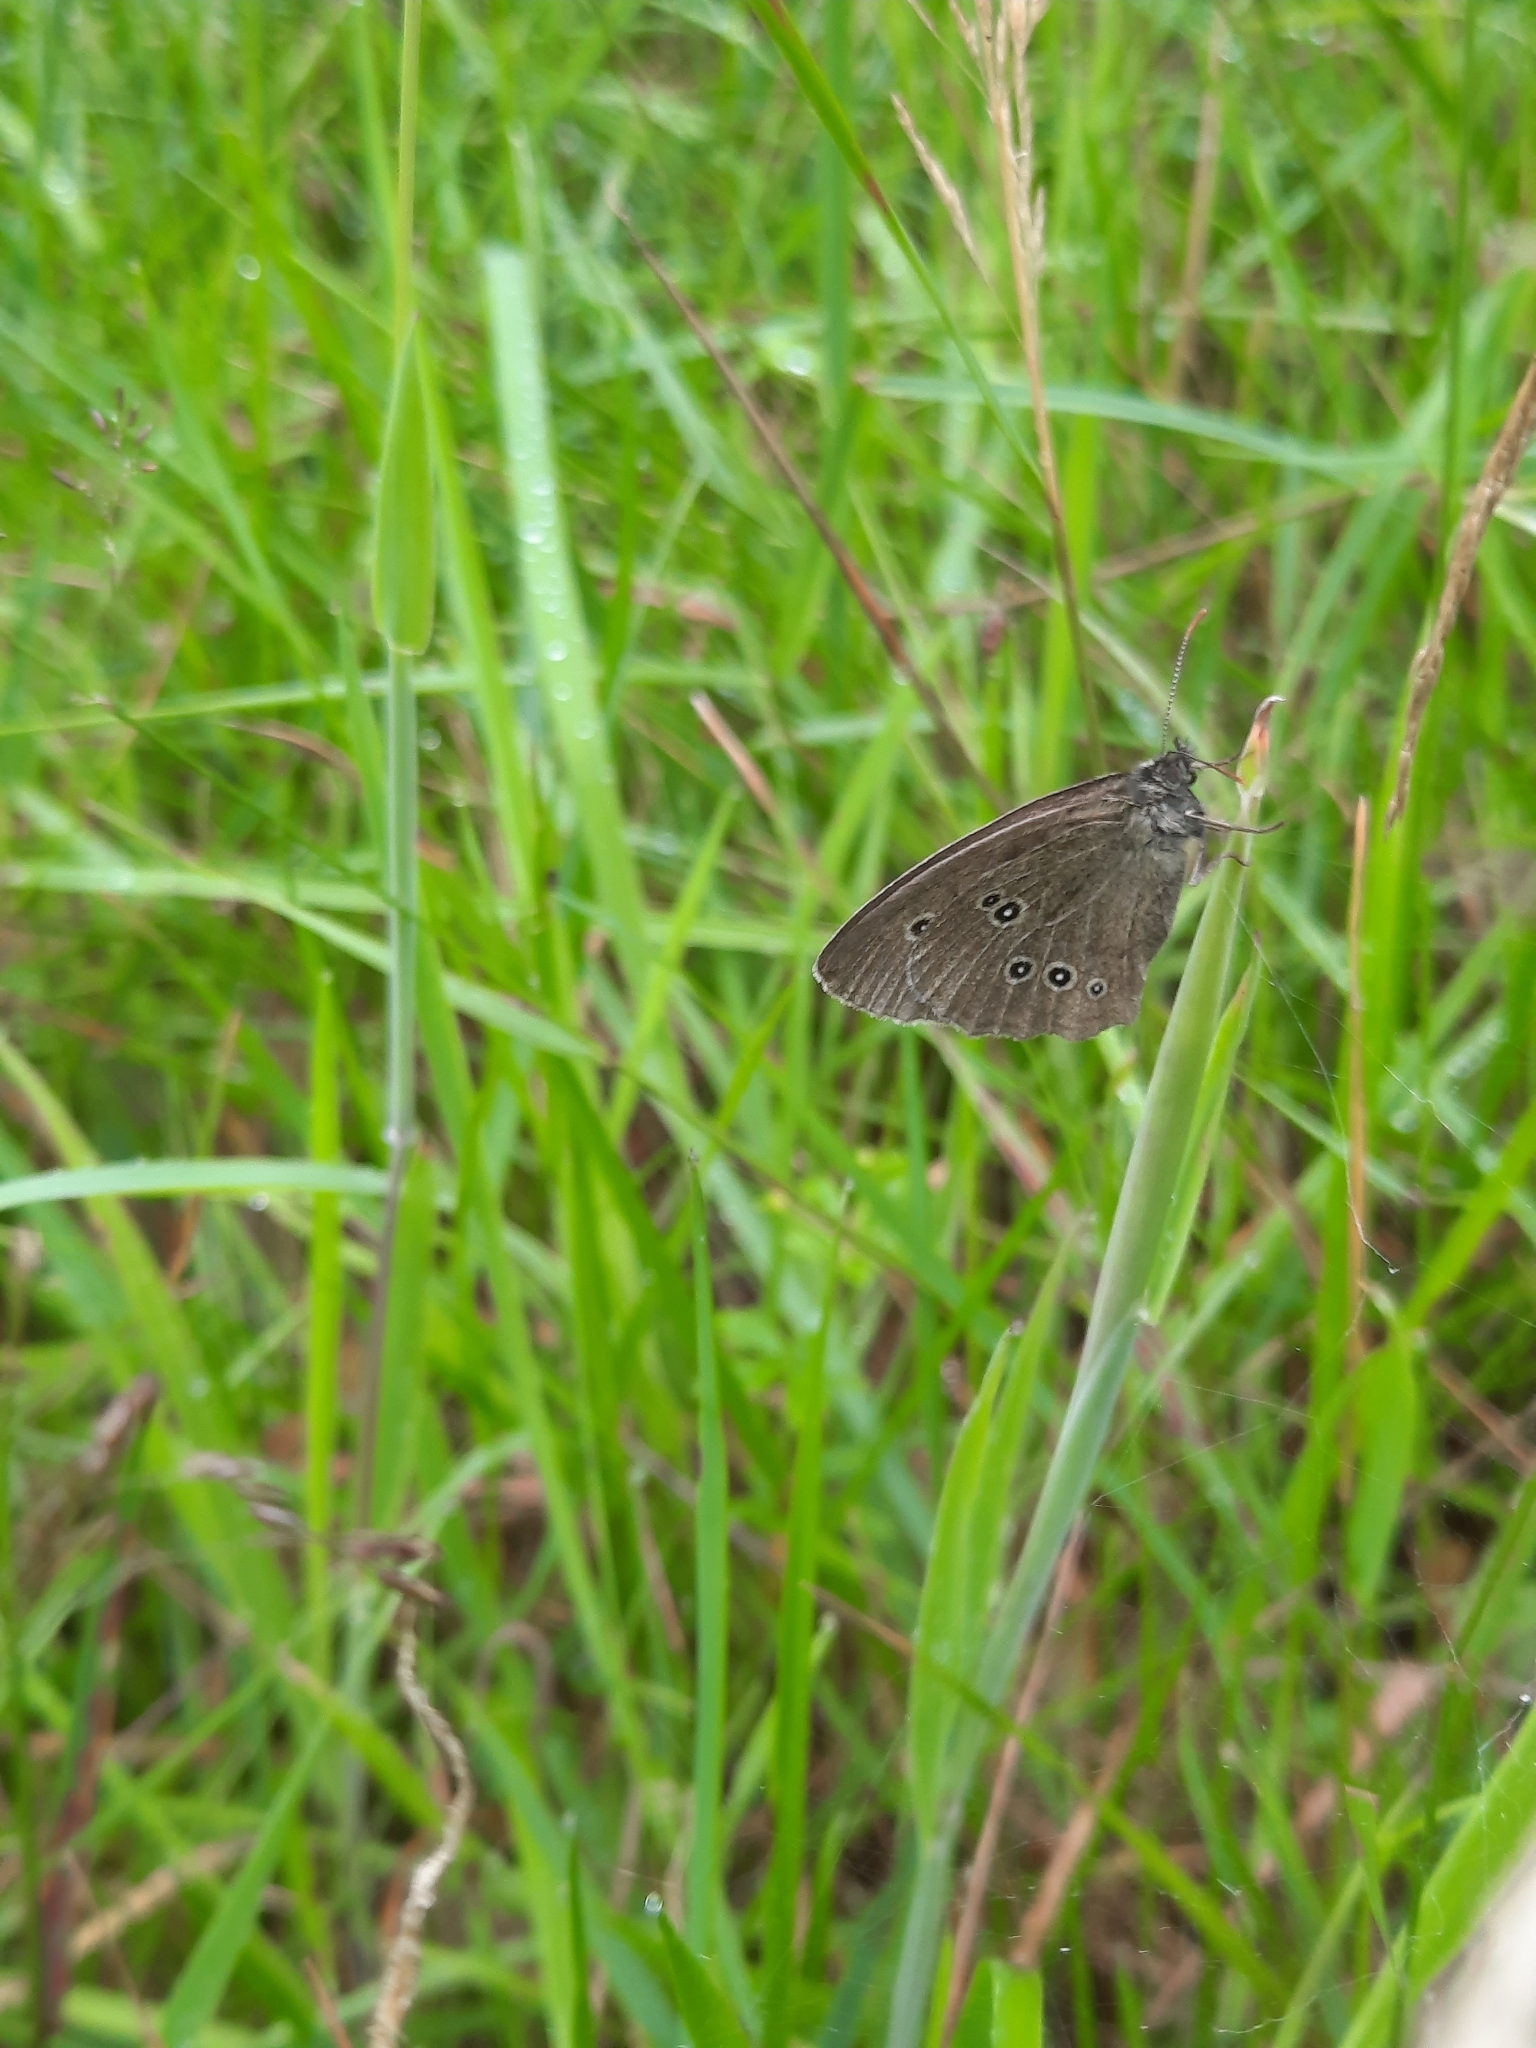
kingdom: Animalia
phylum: Arthropoda
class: Insecta
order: Lepidoptera
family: Nymphalidae
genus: Aphantopus
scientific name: Aphantopus hyperantus
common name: Ringlet
